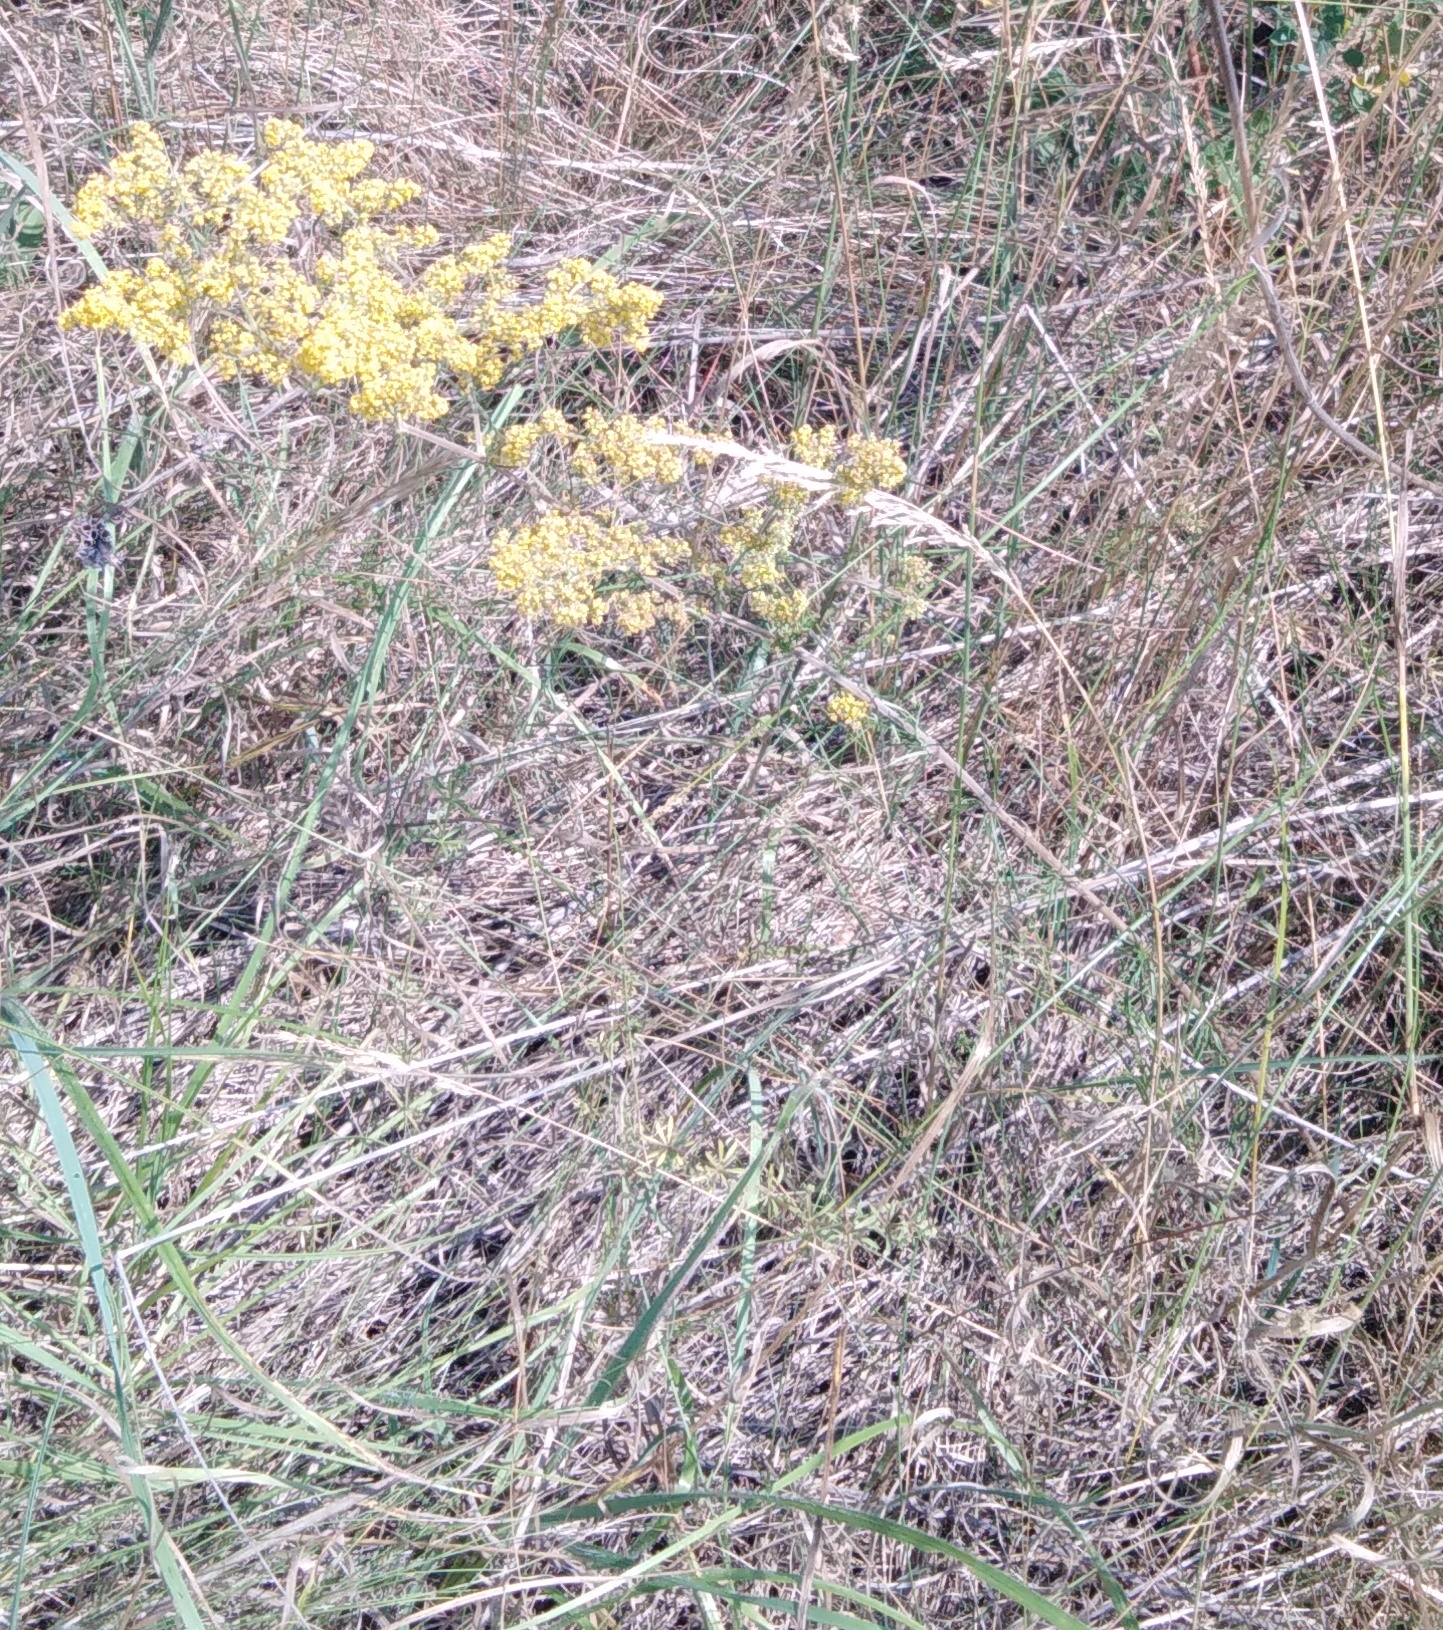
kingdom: Plantae
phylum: Tracheophyta
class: Magnoliopsida
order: Gentianales
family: Rubiaceae
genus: Galium
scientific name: Galium verum
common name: Lady's bedstraw
